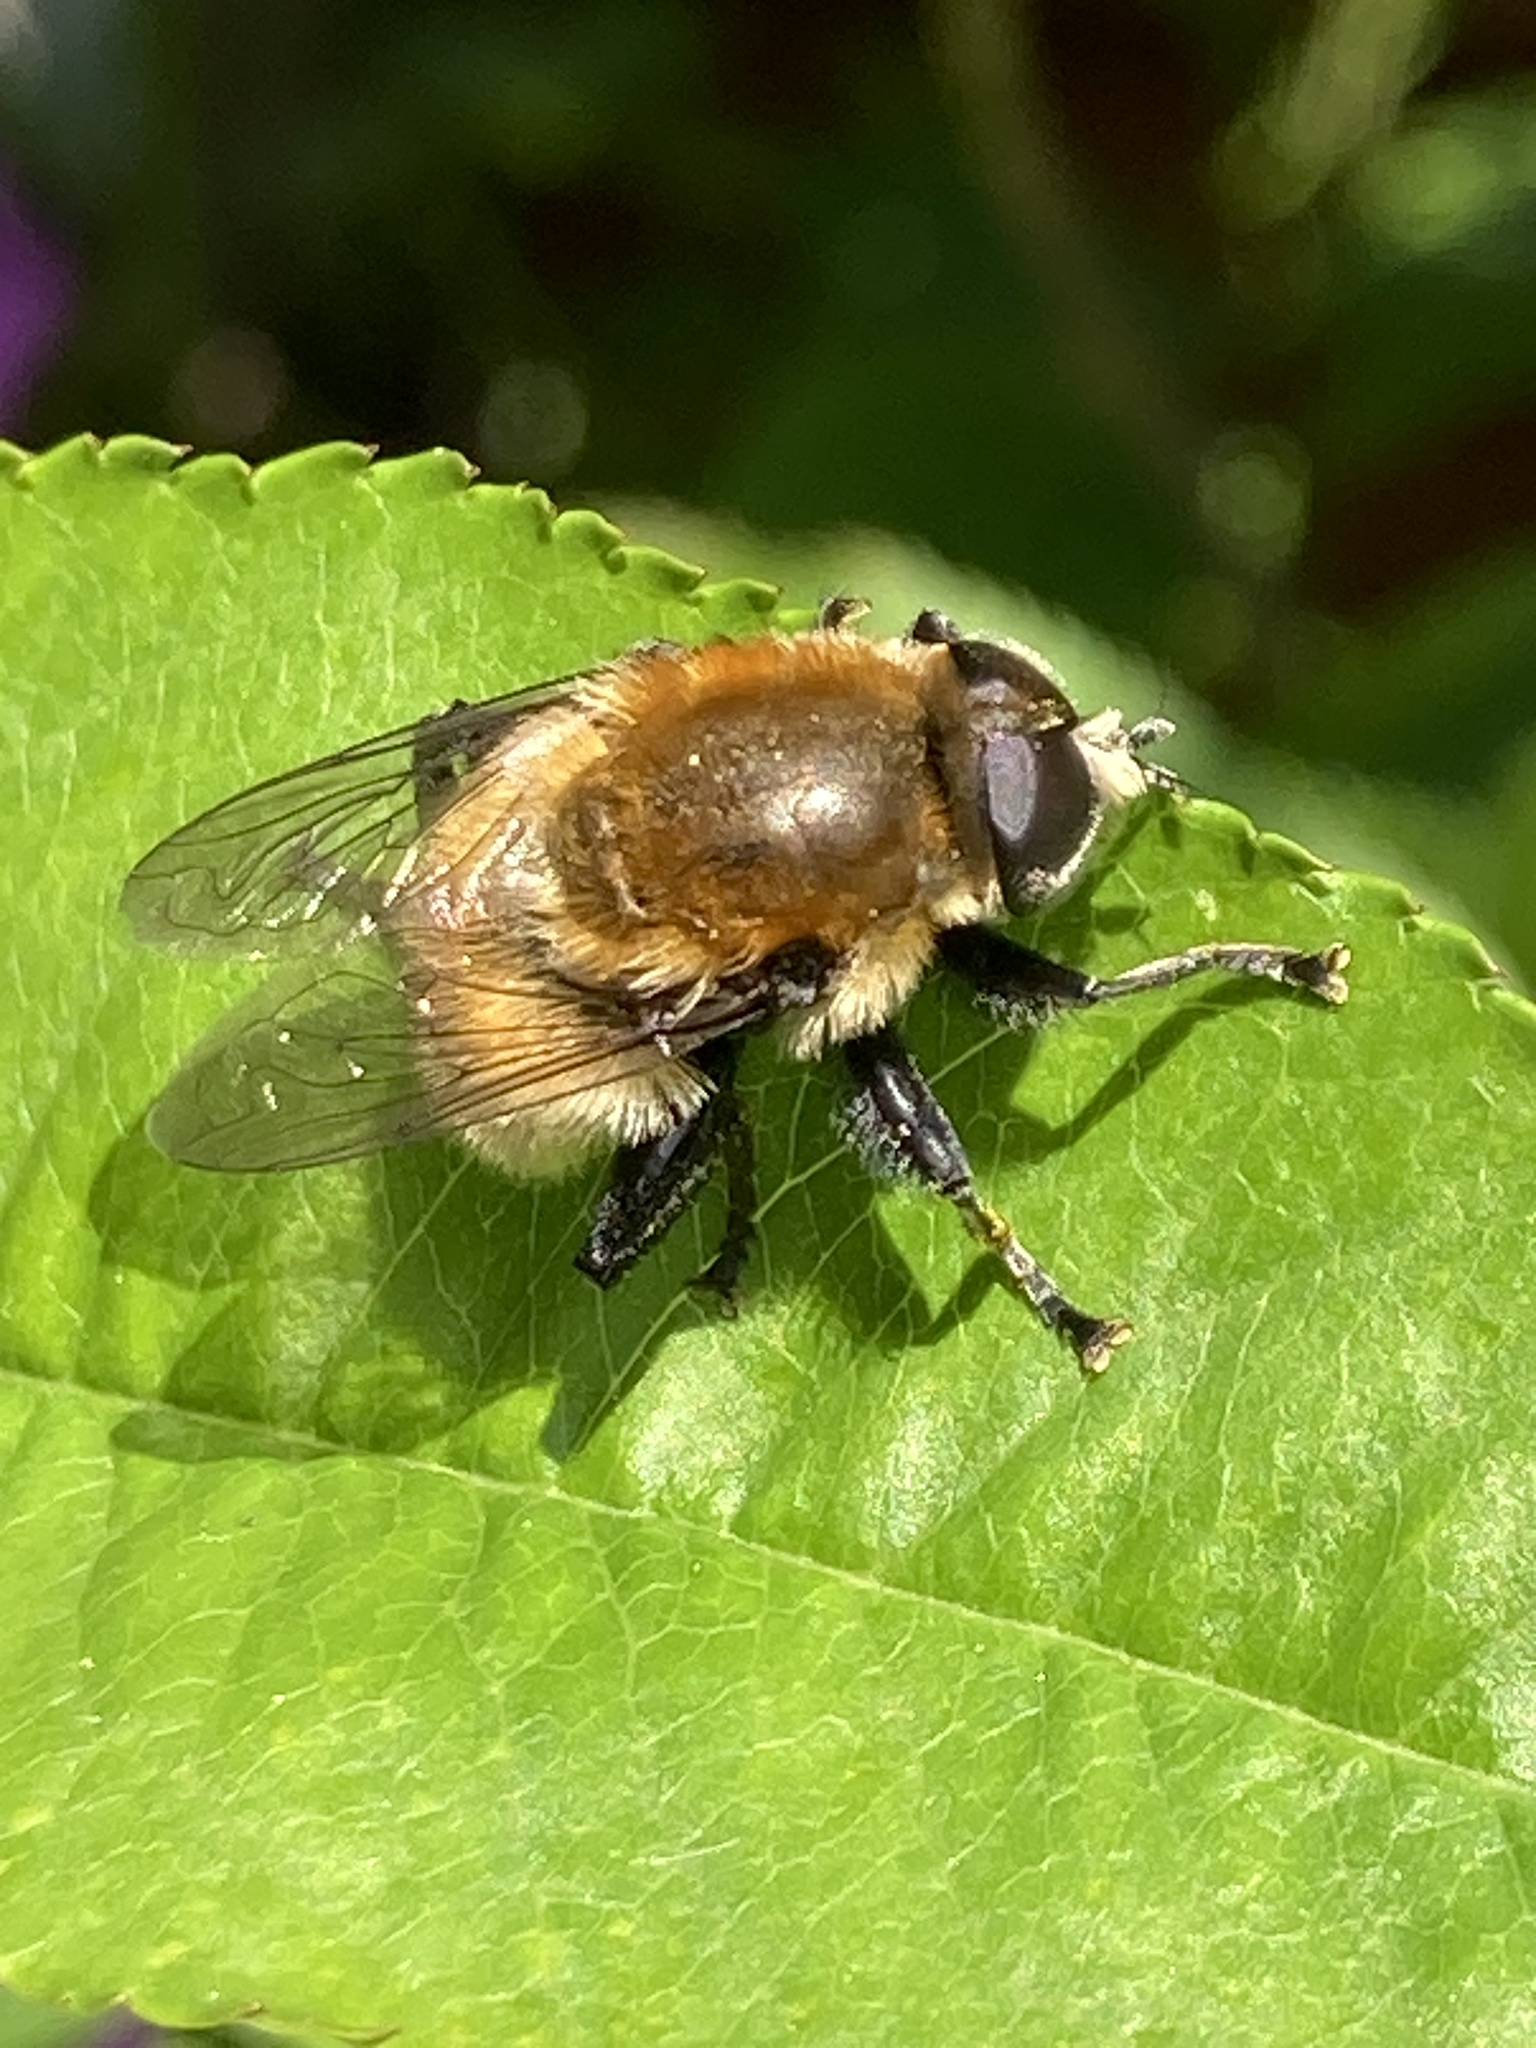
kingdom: Animalia
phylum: Arthropoda
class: Insecta
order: Diptera
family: Syrphidae
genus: Merodon
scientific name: Merodon equestris
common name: Greater bulb-fly
